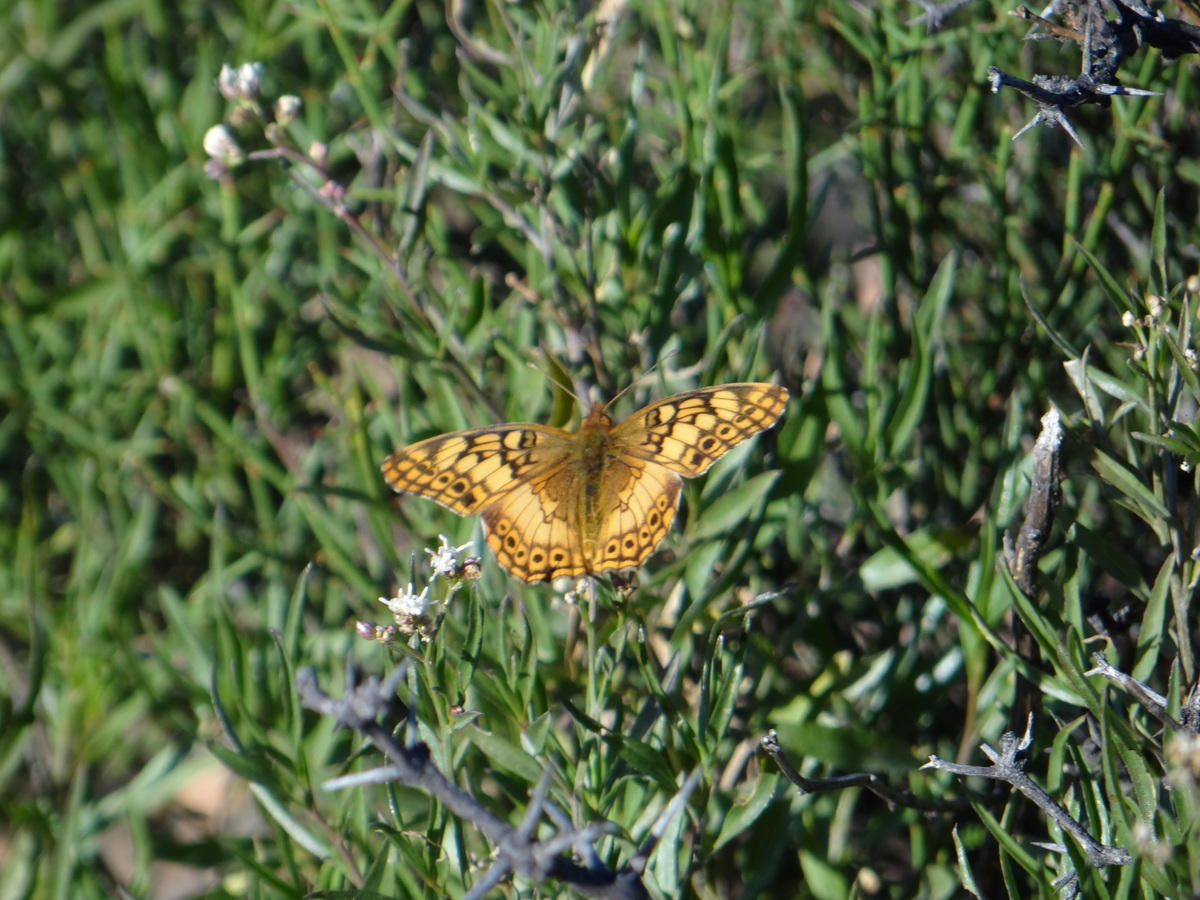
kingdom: Animalia
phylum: Arthropoda
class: Insecta
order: Lepidoptera
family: Nymphalidae
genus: Euptoieta
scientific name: Euptoieta hortensia
